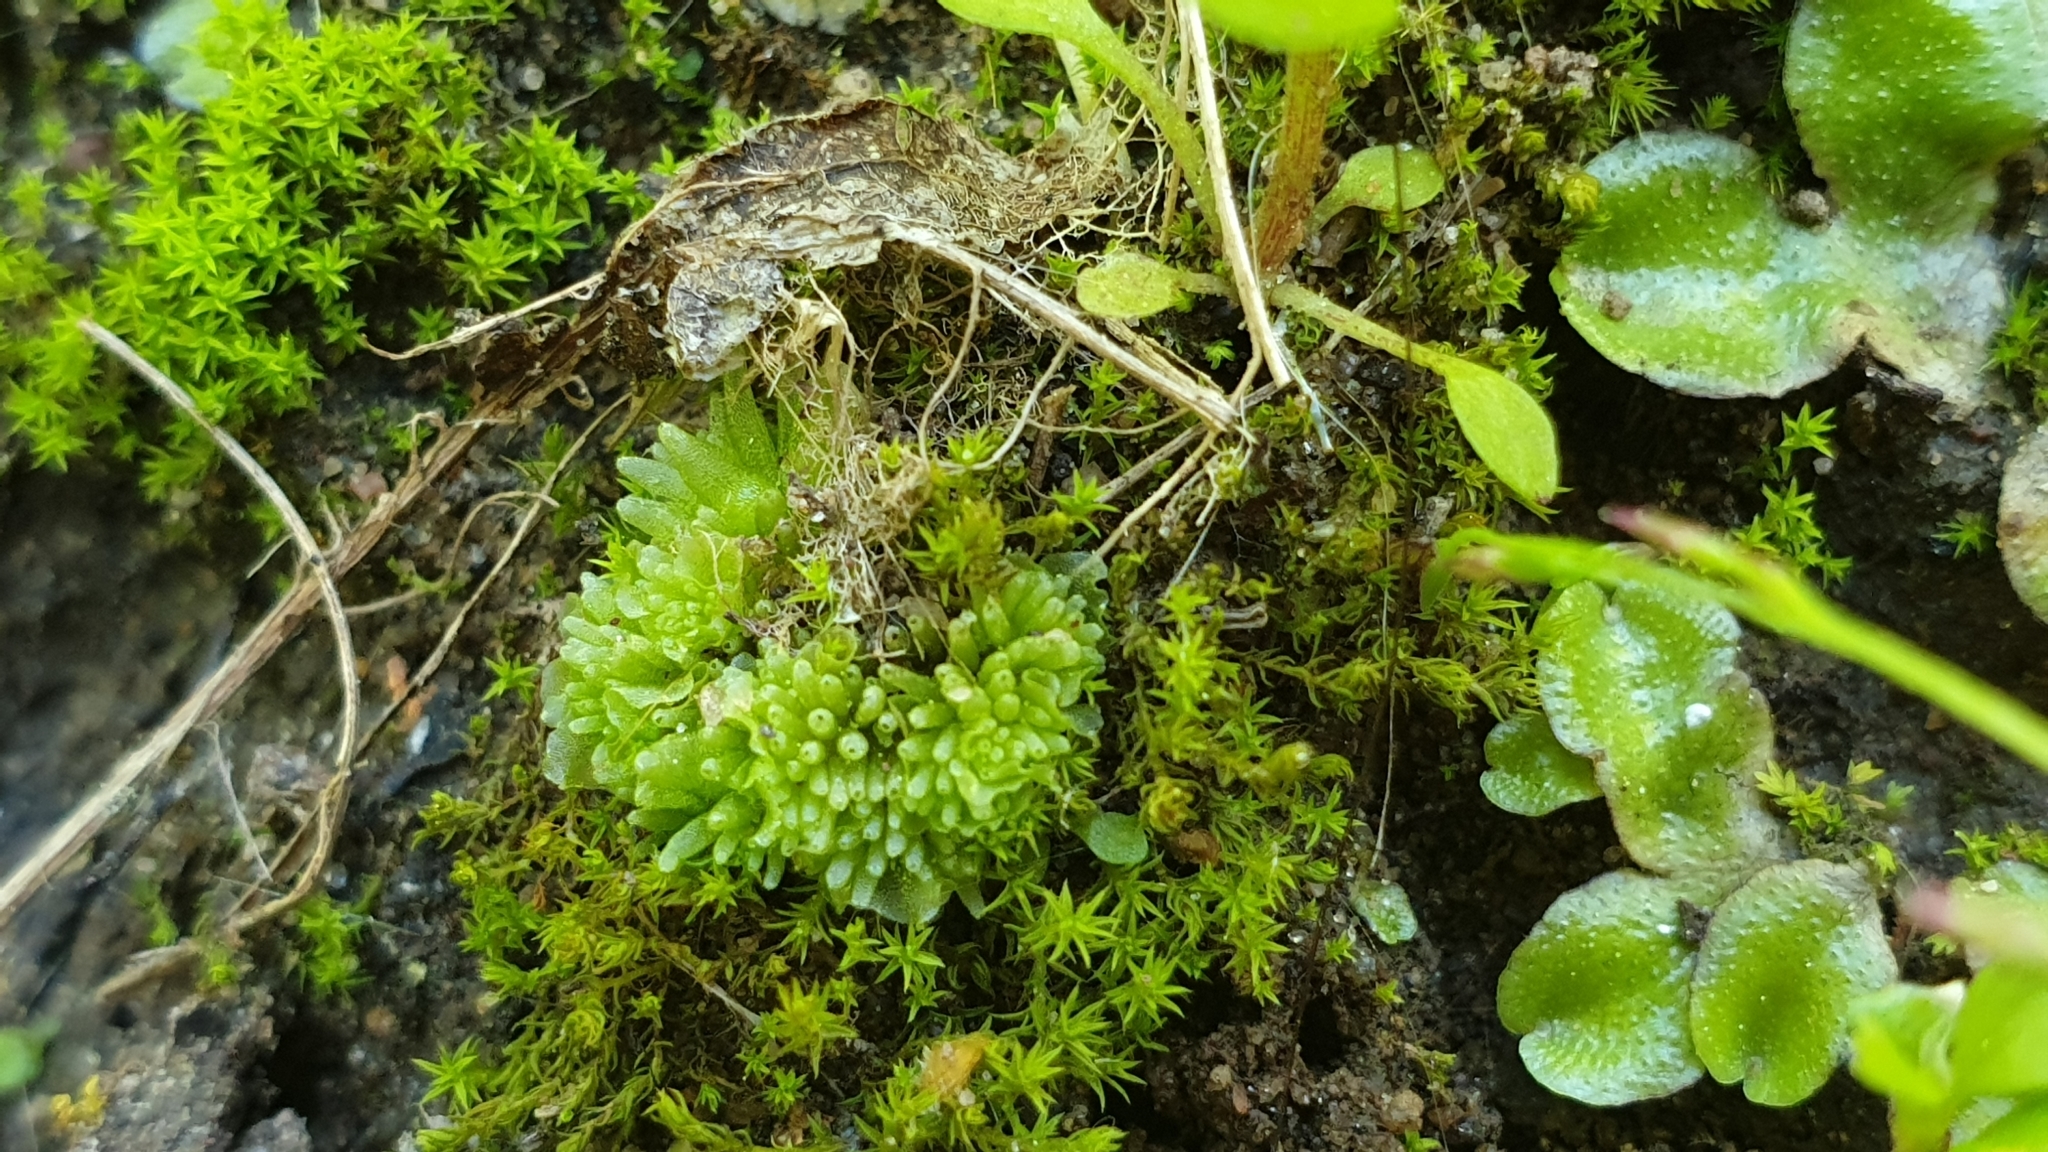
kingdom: Plantae
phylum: Marchantiophyta
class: Marchantiopsida
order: Sphaerocarpales
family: Sphaerocarpaceae
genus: Sphaerocarpos
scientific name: Sphaerocarpos texanus
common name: Texas balloonwort
